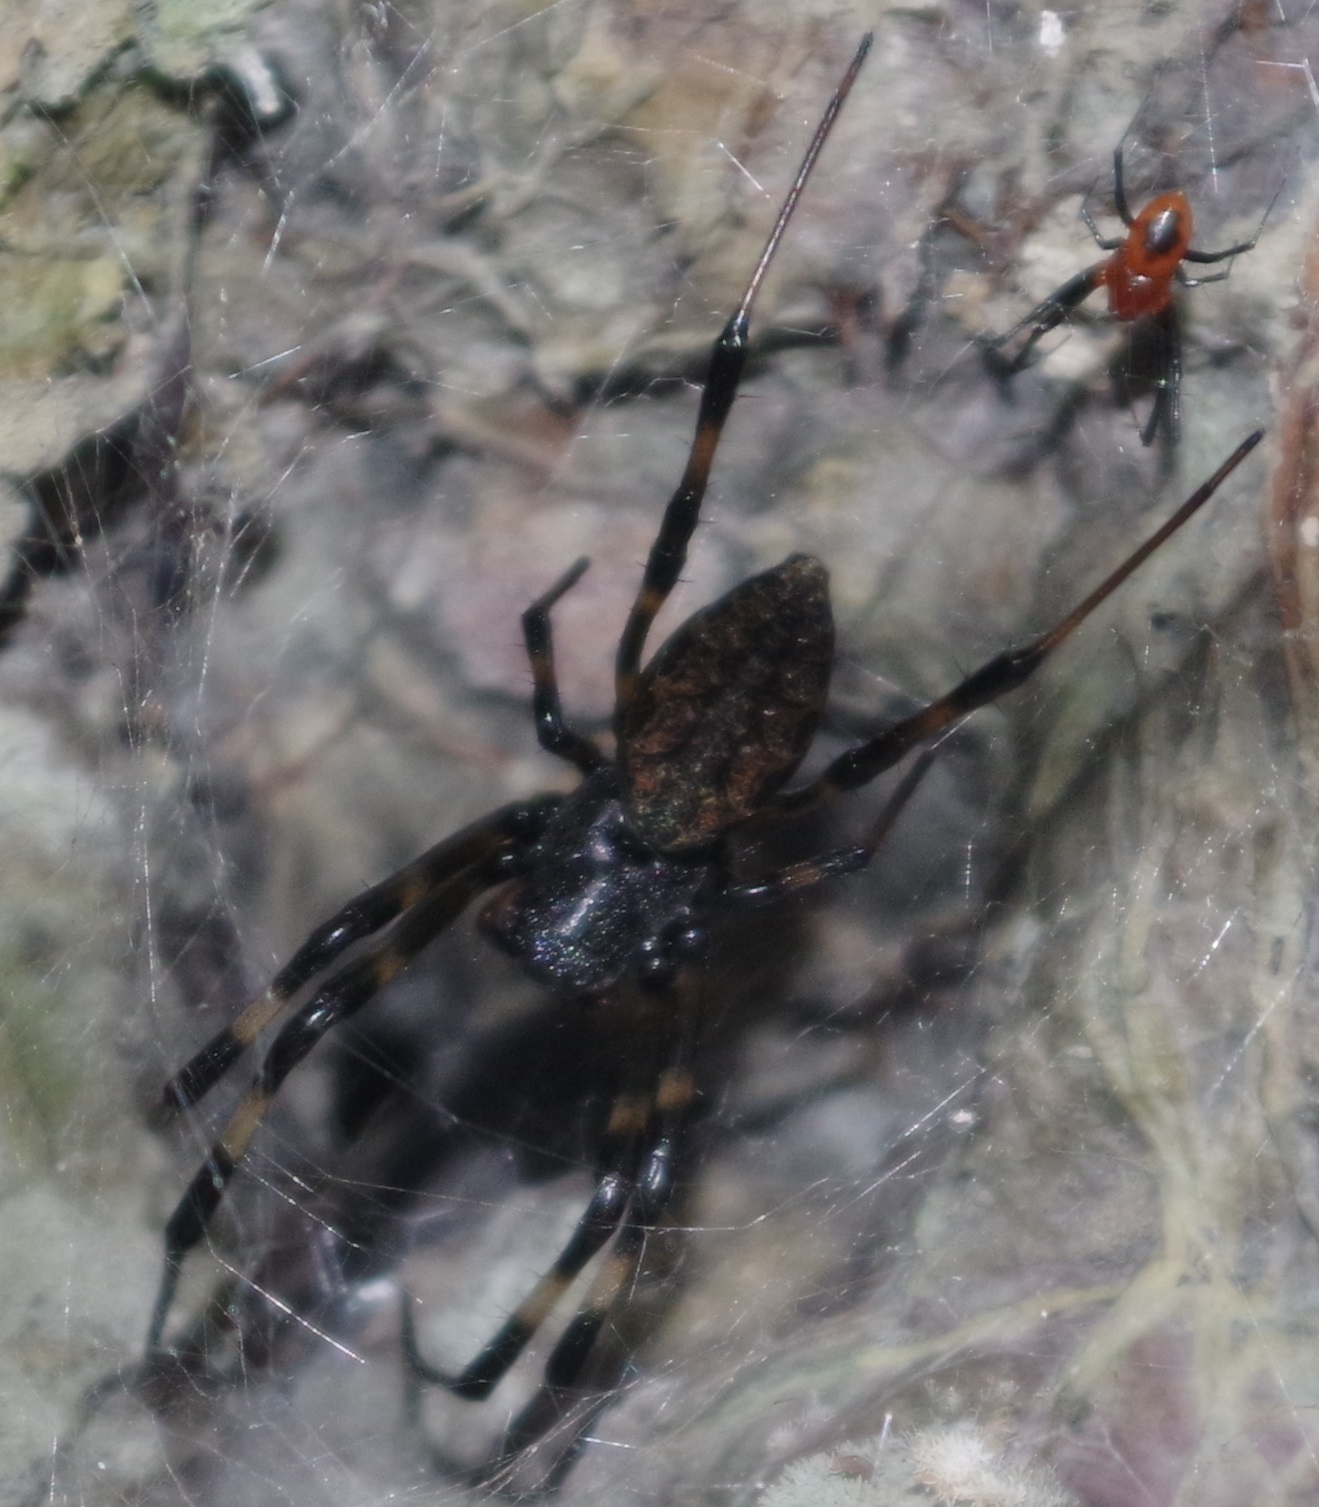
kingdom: Animalia
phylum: Arthropoda
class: Arachnida
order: Araneae
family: Araneidae
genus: Nephilengys
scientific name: Nephilengys malabarensis
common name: Asian hermit spider
